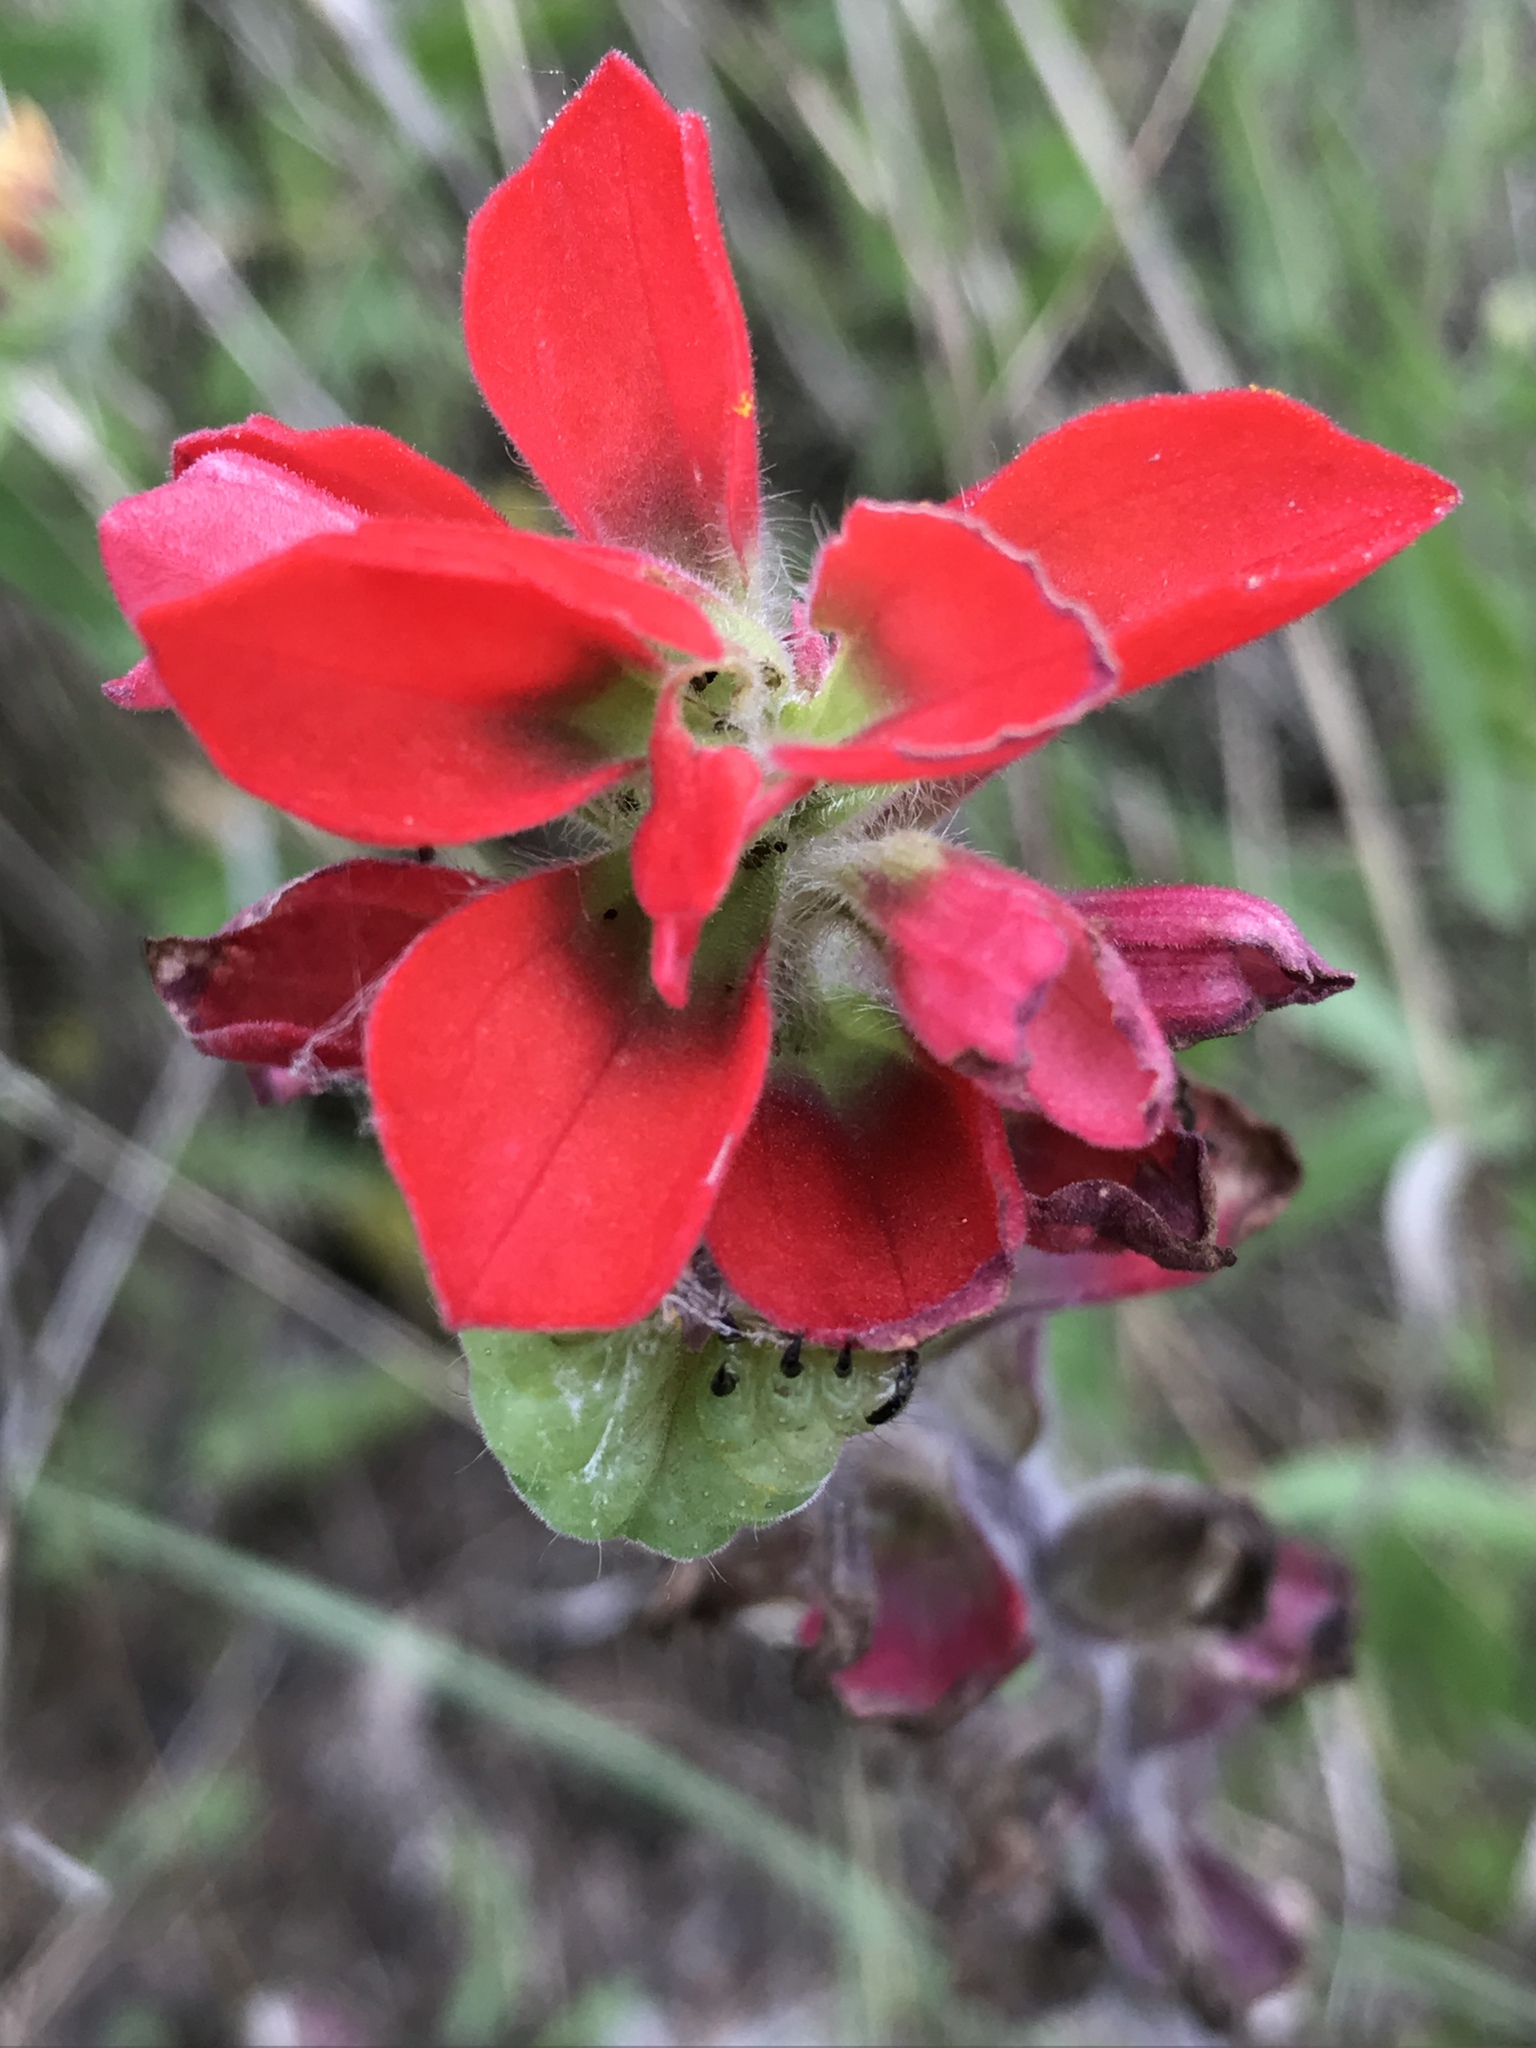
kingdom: Plantae
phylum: Tracheophyta
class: Magnoliopsida
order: Lamiales
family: Orobanchaceae
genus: Castilleja
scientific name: Castilleja indivisa
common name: Texas paintbrush
